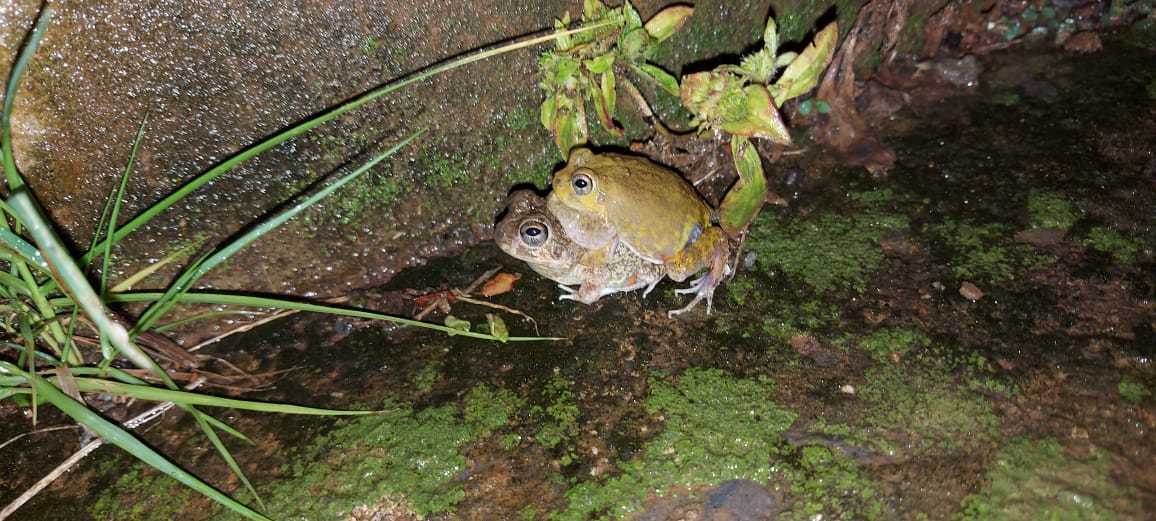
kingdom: Animalia
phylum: Chordata
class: Amphibia
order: Anura
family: Leptodactylidae
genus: Pleurodema
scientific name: Pleurodema brachyops
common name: Colombian four-eyed frog
